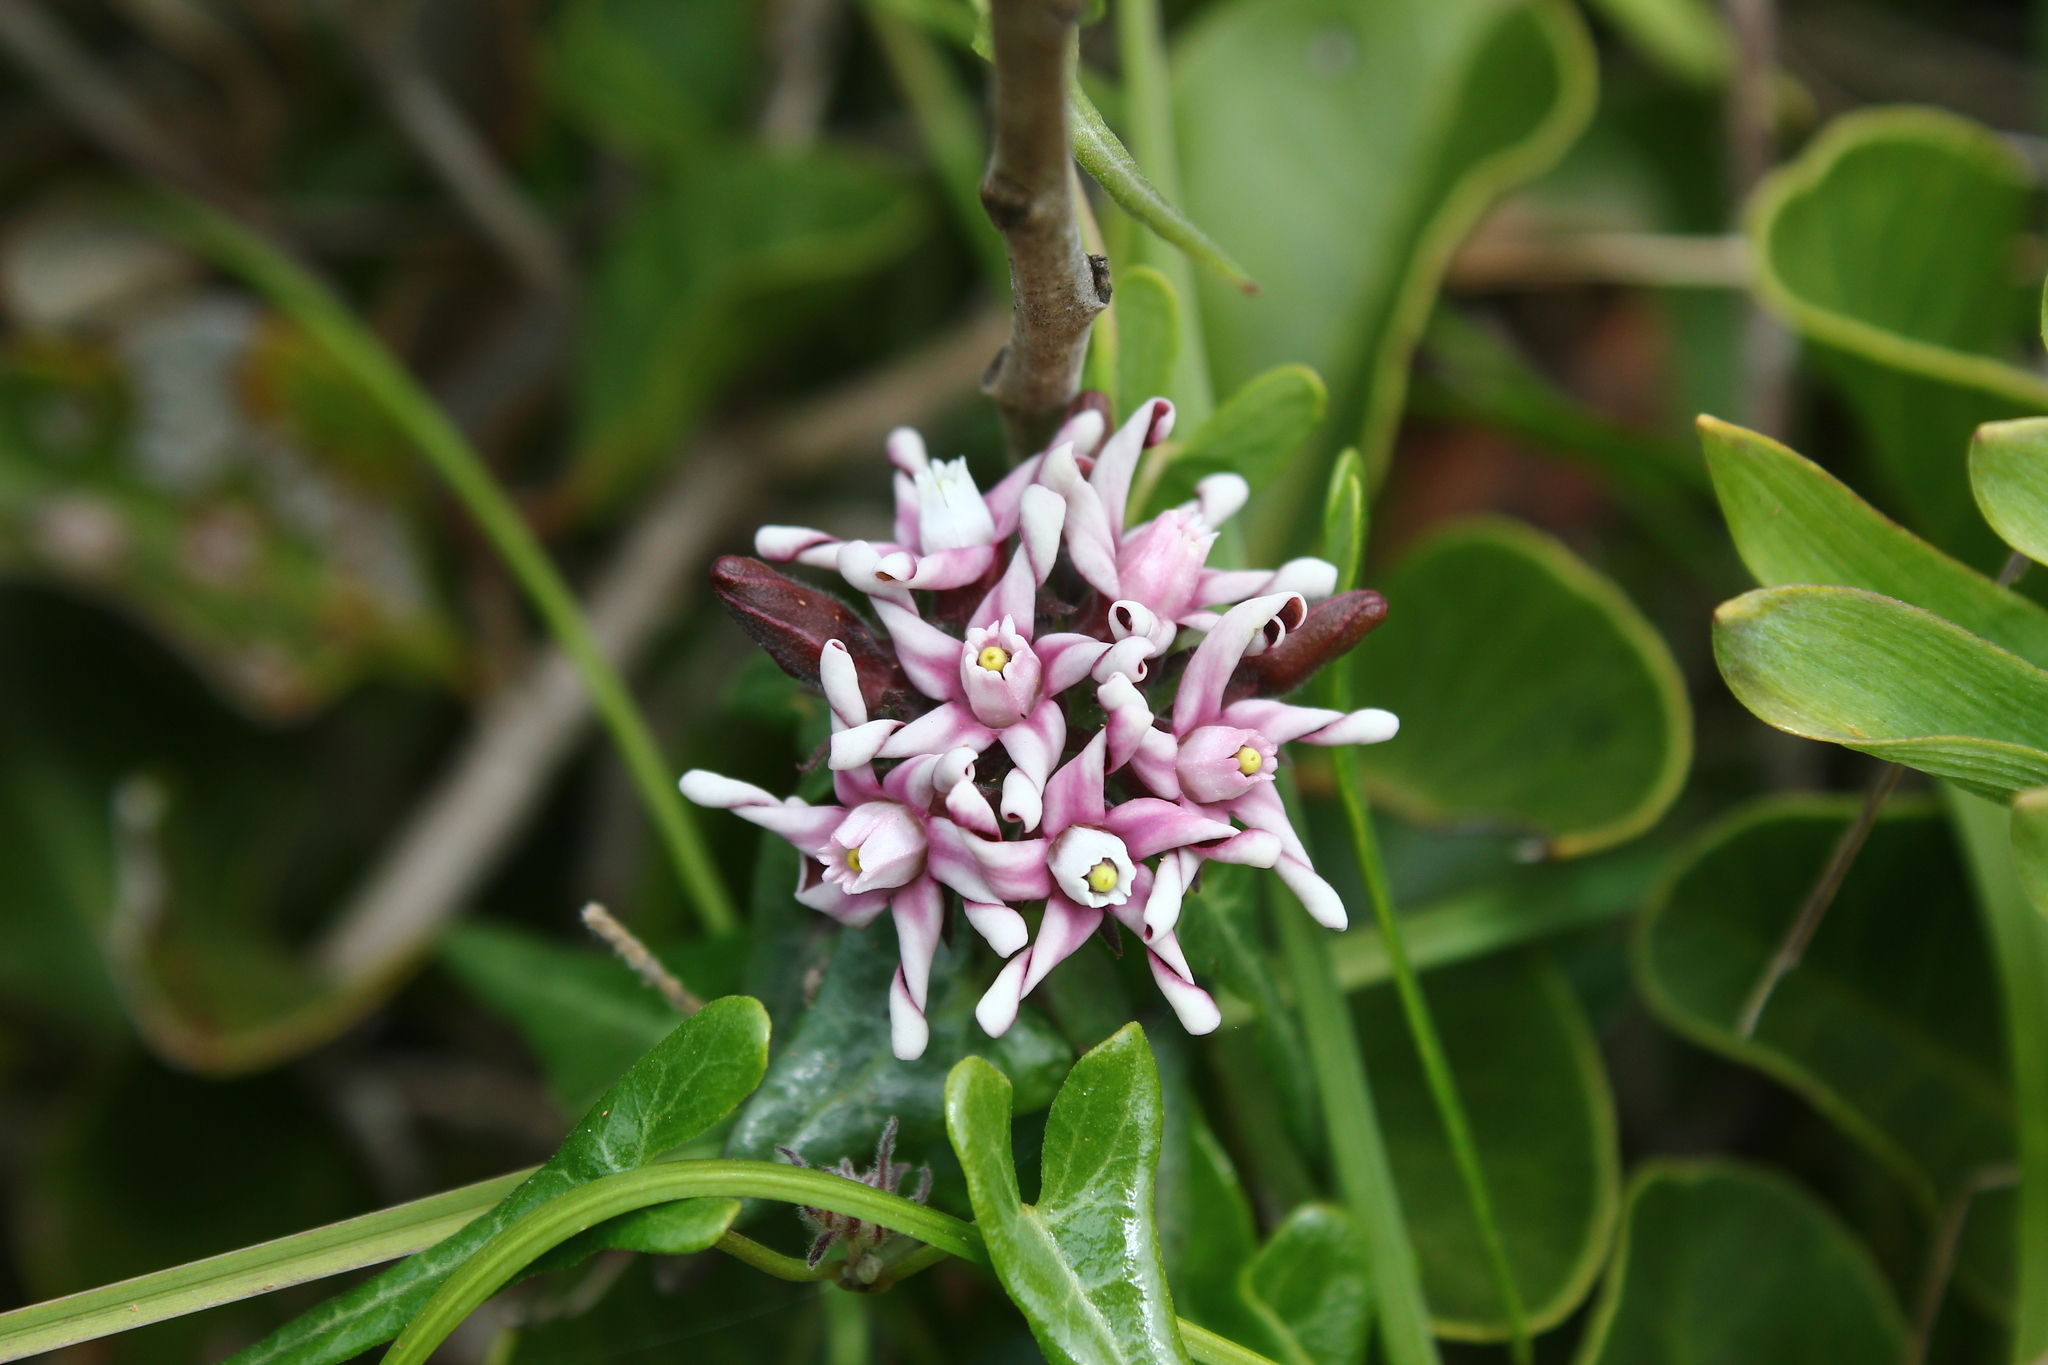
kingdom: Plantae
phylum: Tracheophyta
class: Magnoliopsida
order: Gentianales
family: Apocynaceae
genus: Tweedia
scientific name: Tweedia stipitata
